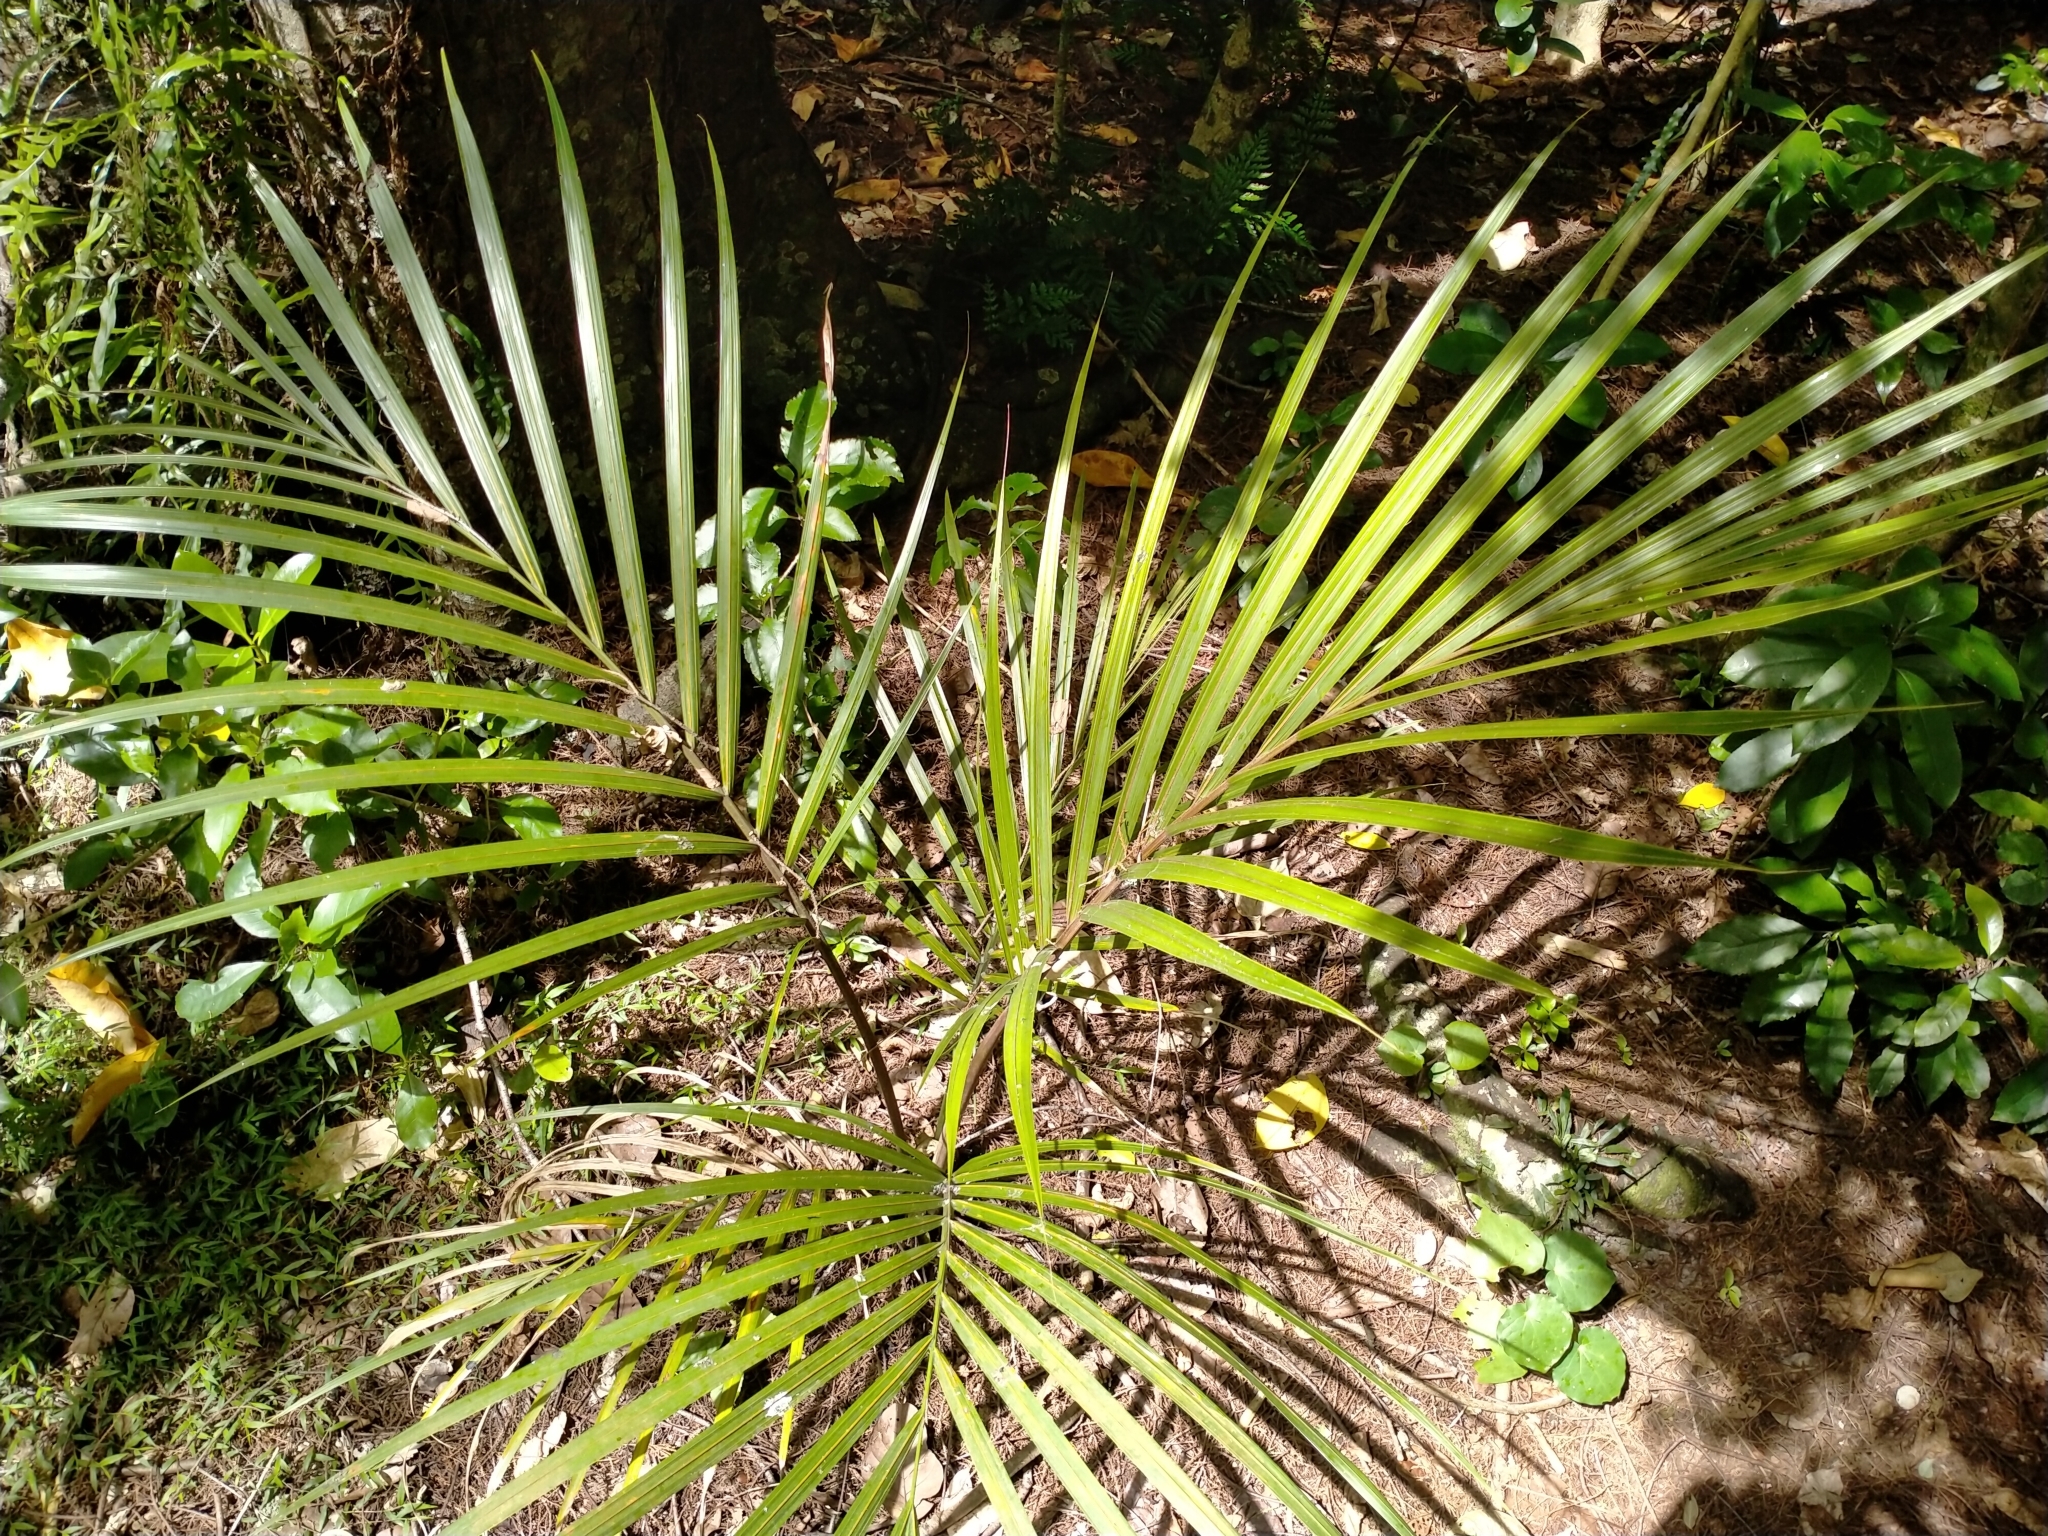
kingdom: Plantae
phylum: Tracheophyta
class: Liliopsida
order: Arecales
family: Arecaceae
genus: Rhopalostylis
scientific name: Rhopalostylis sapida
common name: Feather-duster palm
